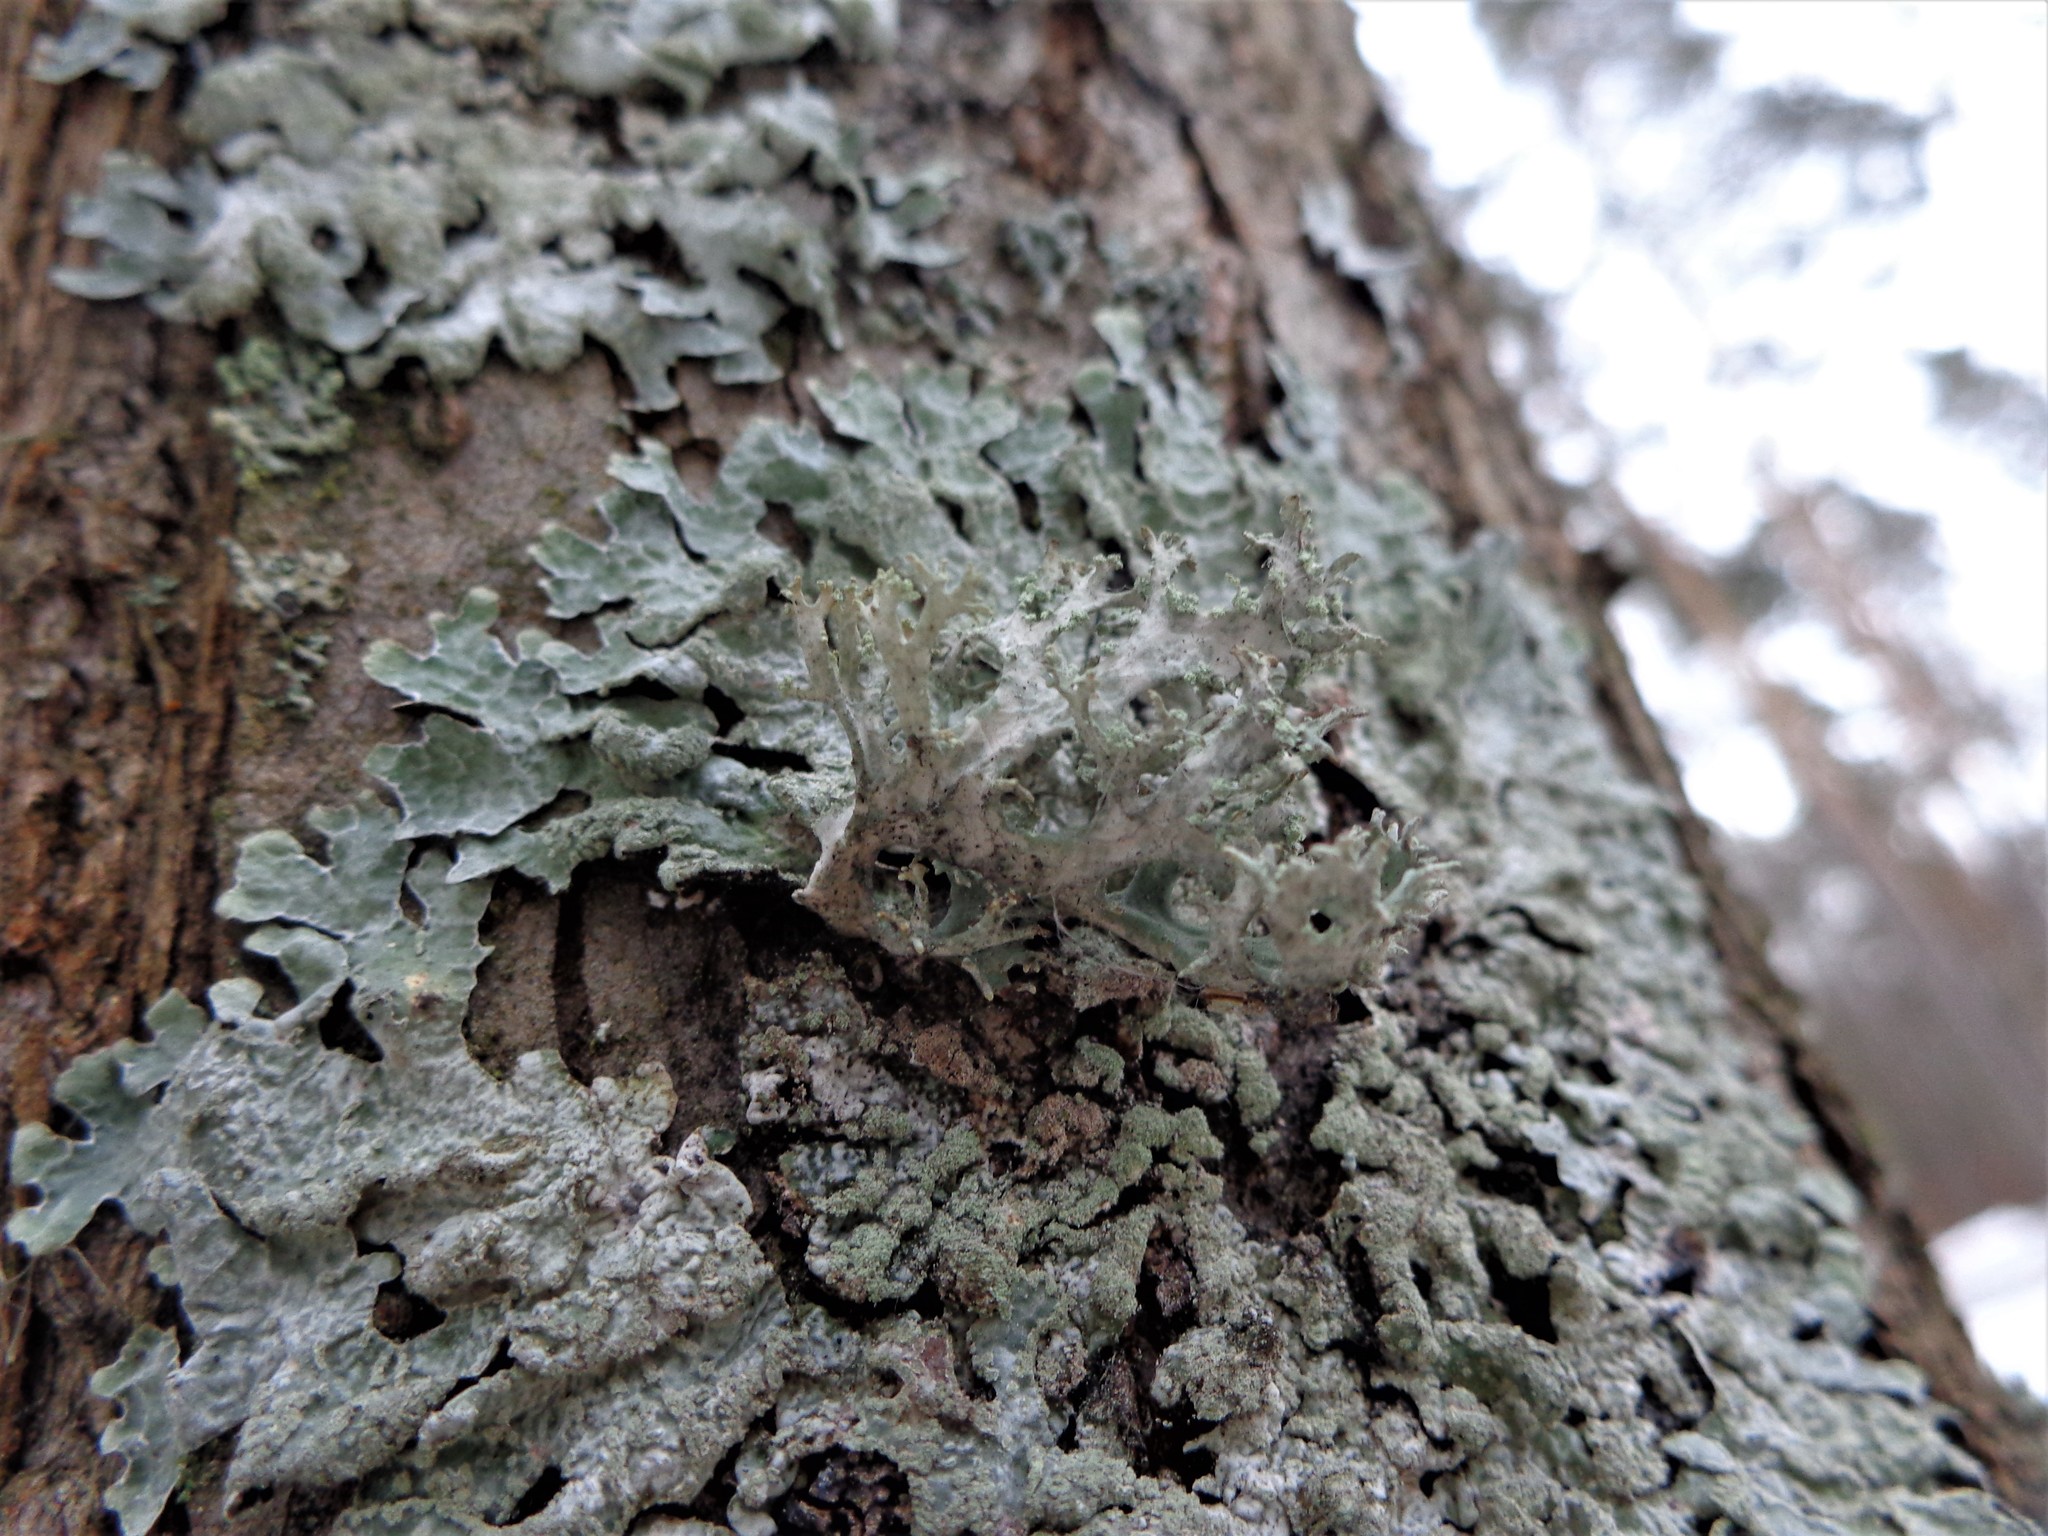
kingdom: Fungi
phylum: Ascomycota
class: Lecanoromycetes
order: Lecanorales
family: Parmeliaceae
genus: Parmelia
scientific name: Parmelia sulcata
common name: Netted shield lichen
